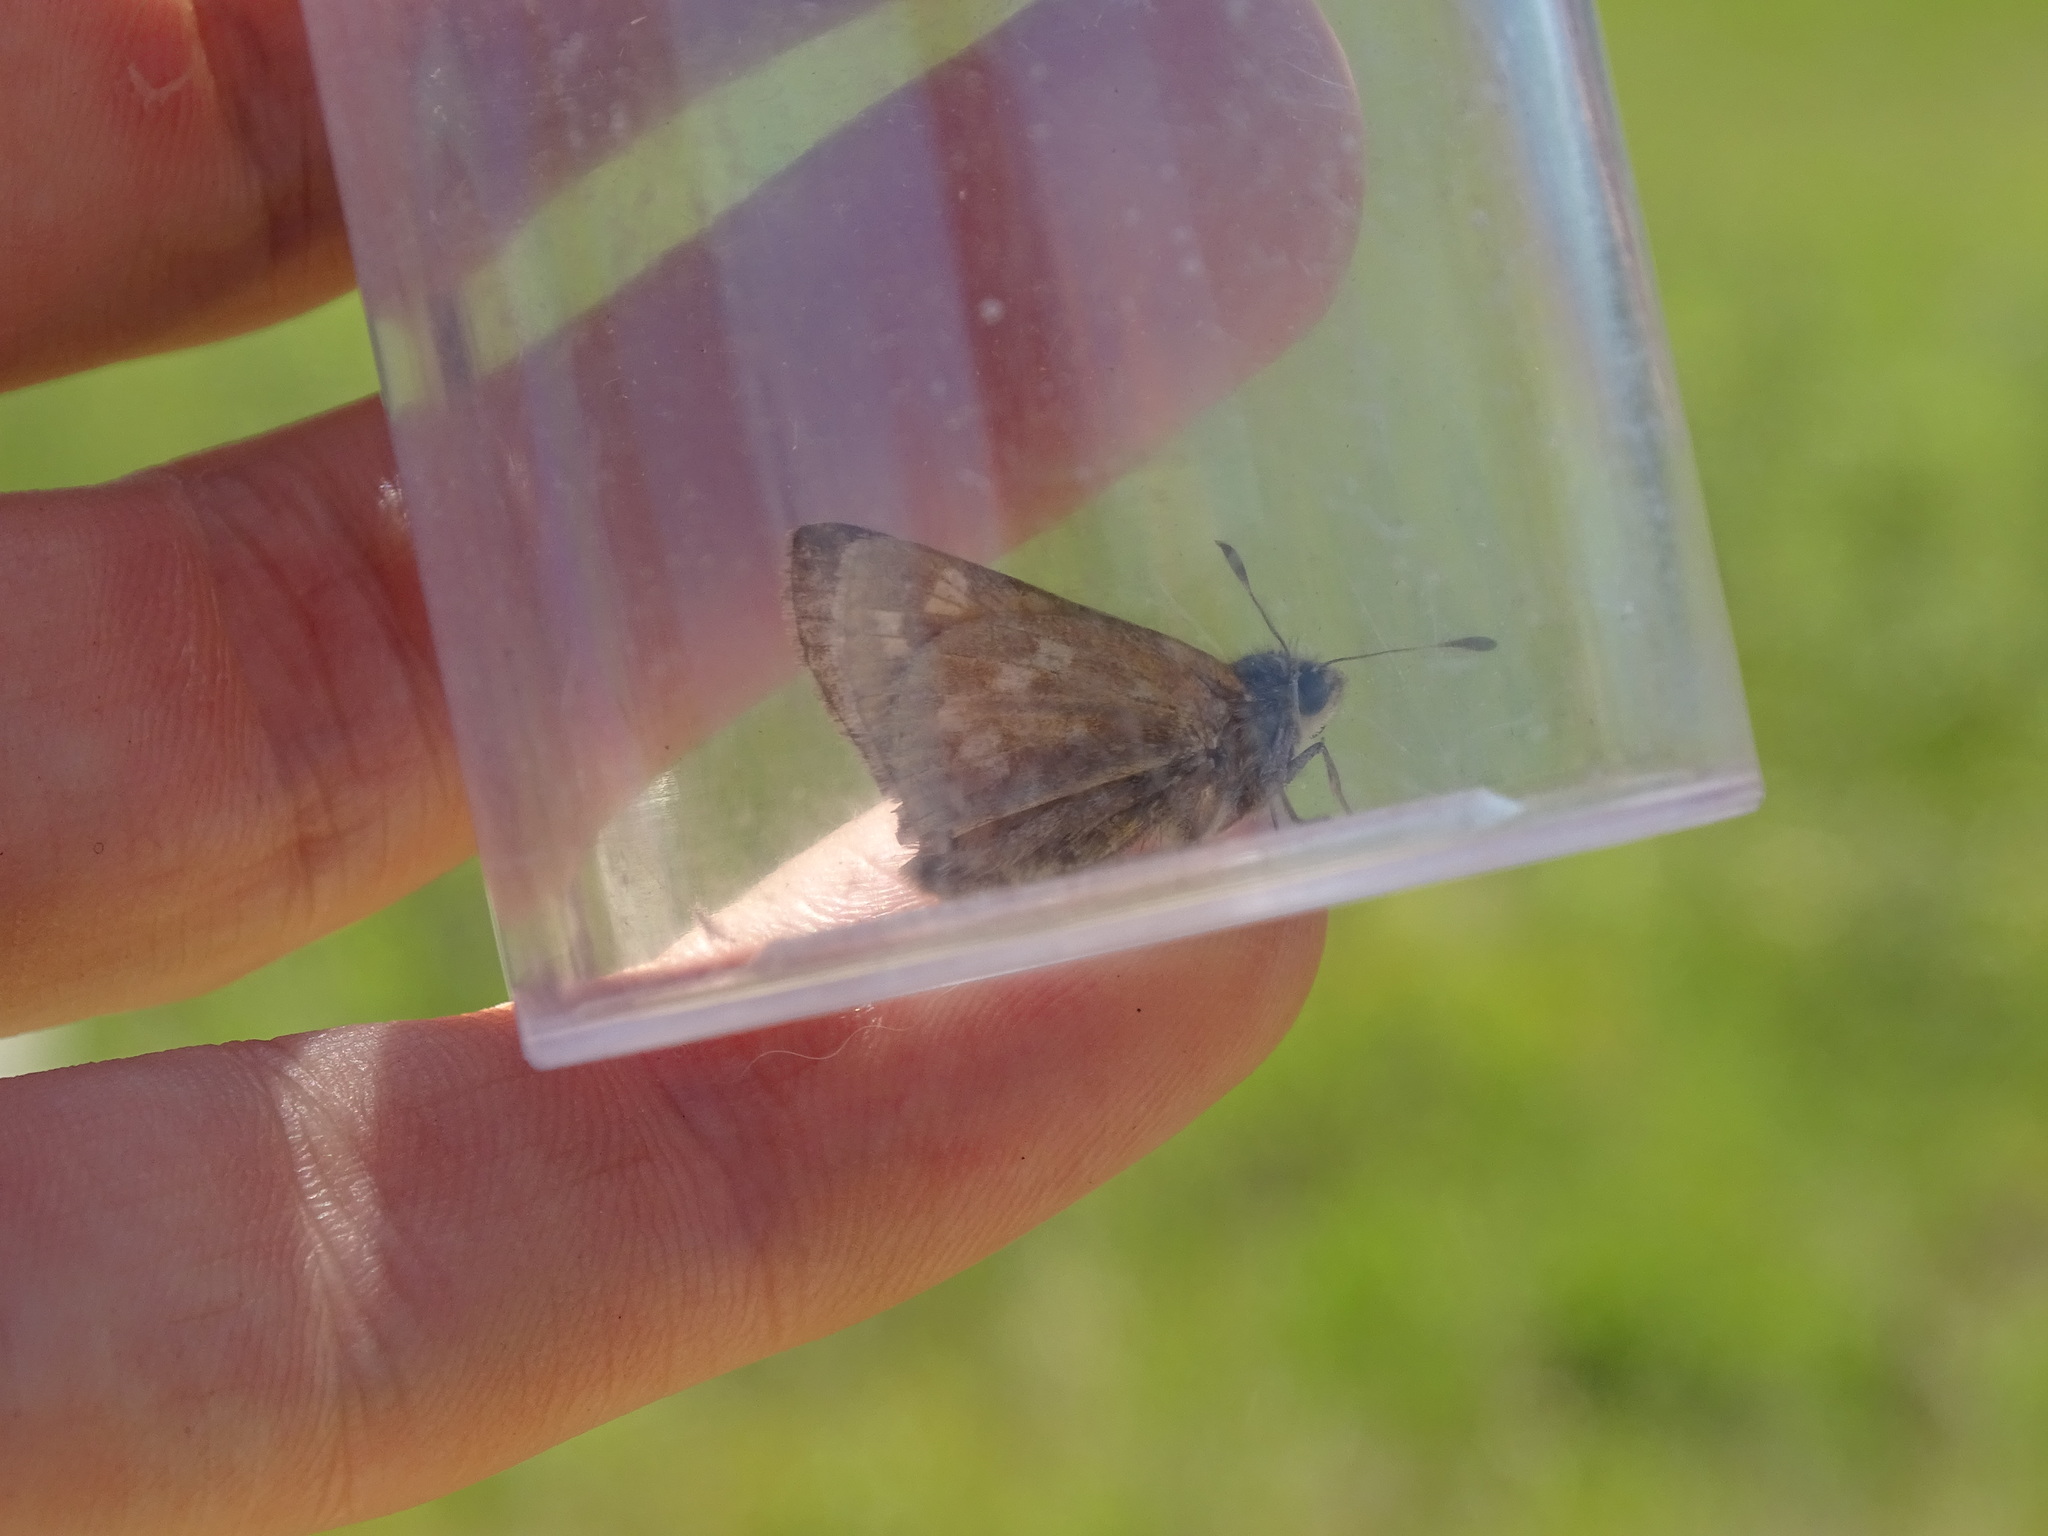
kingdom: Animalia
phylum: Arthropoda
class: Insecta
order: Lepidoptera
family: Hesperiidae
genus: Hesperia
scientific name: Hesperia sassacus
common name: Indian skipper
